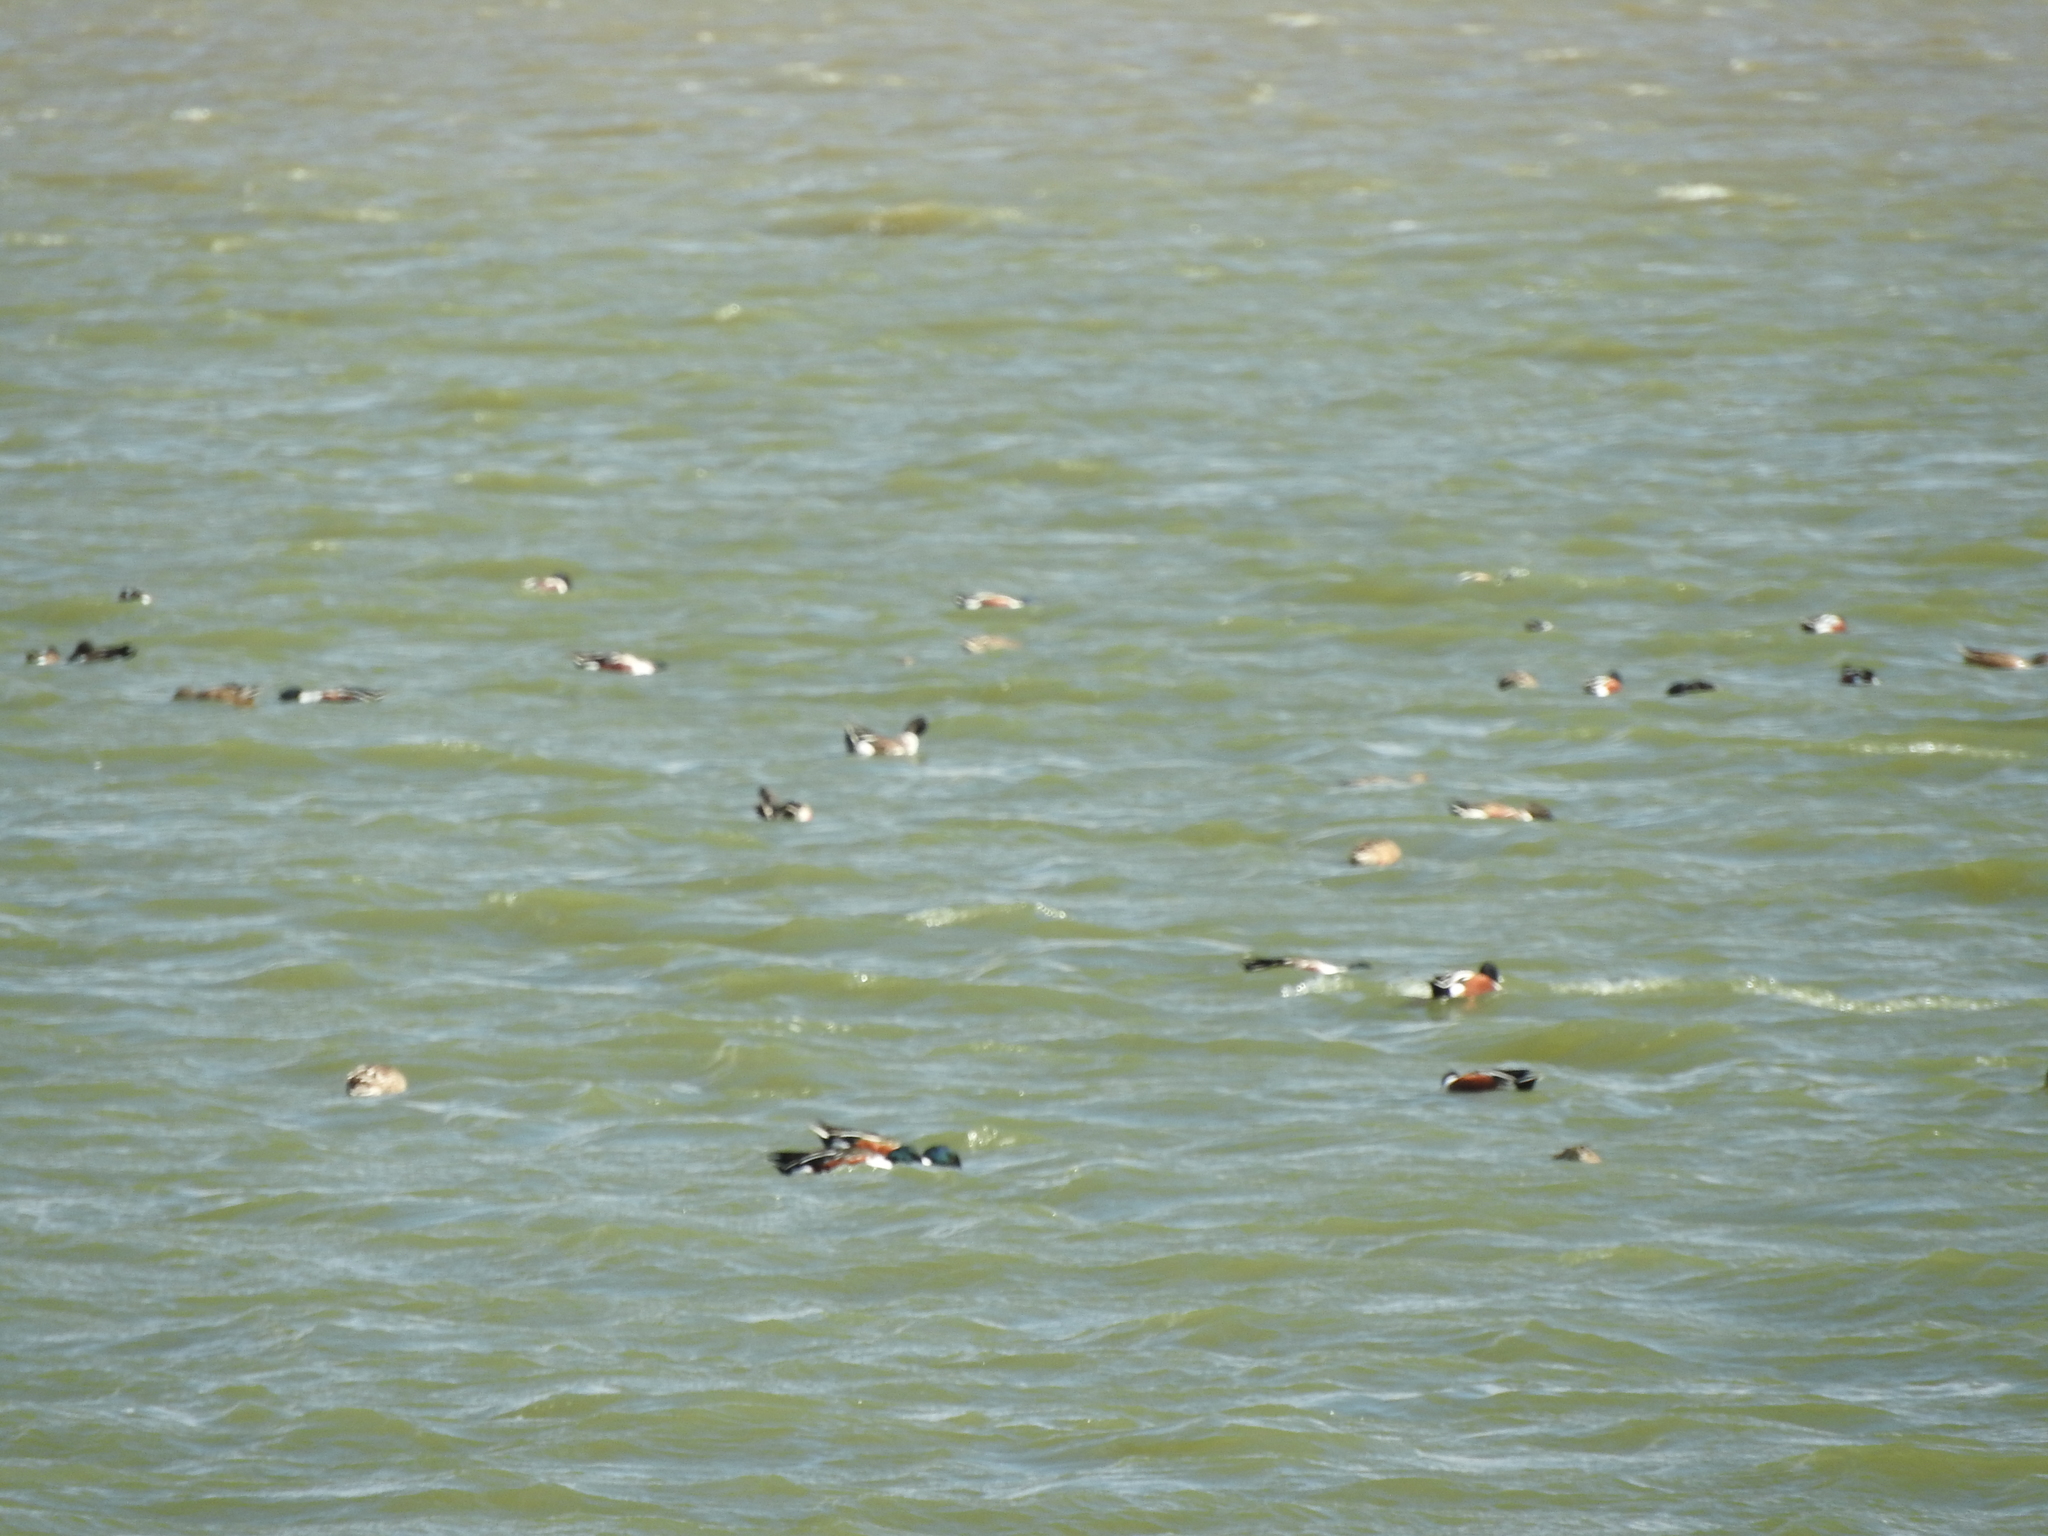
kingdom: Animalia
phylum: Chordata
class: Aves
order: Anseriformes
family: Anatidae
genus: Spatula
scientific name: Spatula clypeata
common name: Northern shoveler
